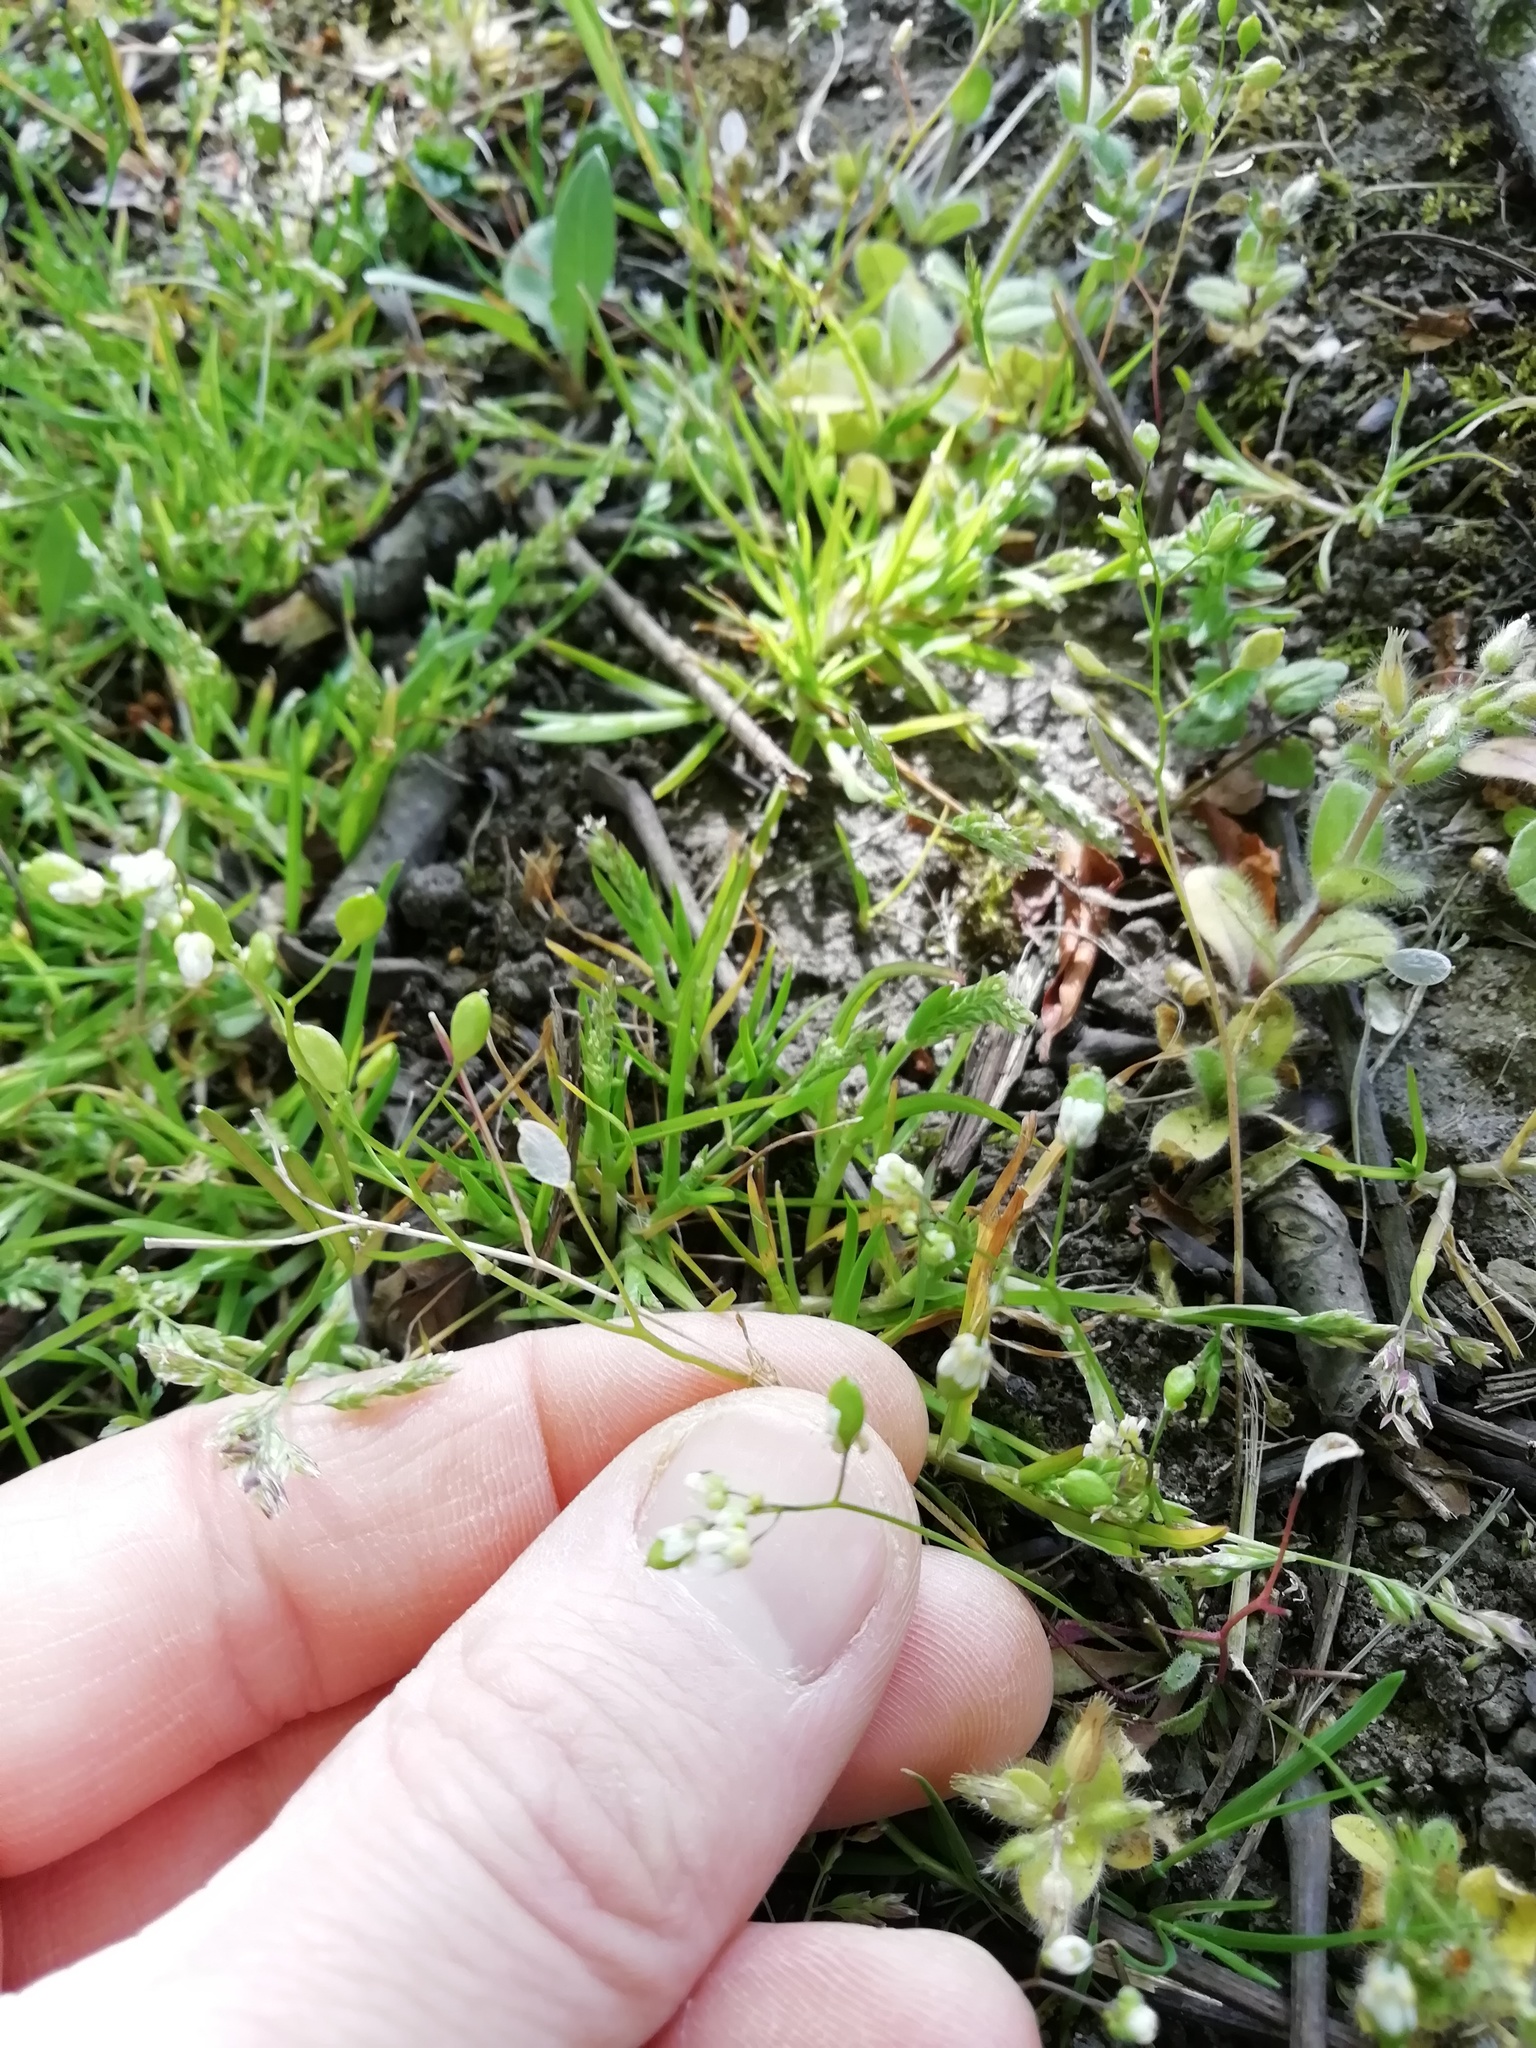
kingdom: Plantae
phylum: Tracheophyta
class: Magnoliopsida
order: Brassicales
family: Brassicaceae
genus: Draba
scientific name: Draba verna
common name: Spring draba
